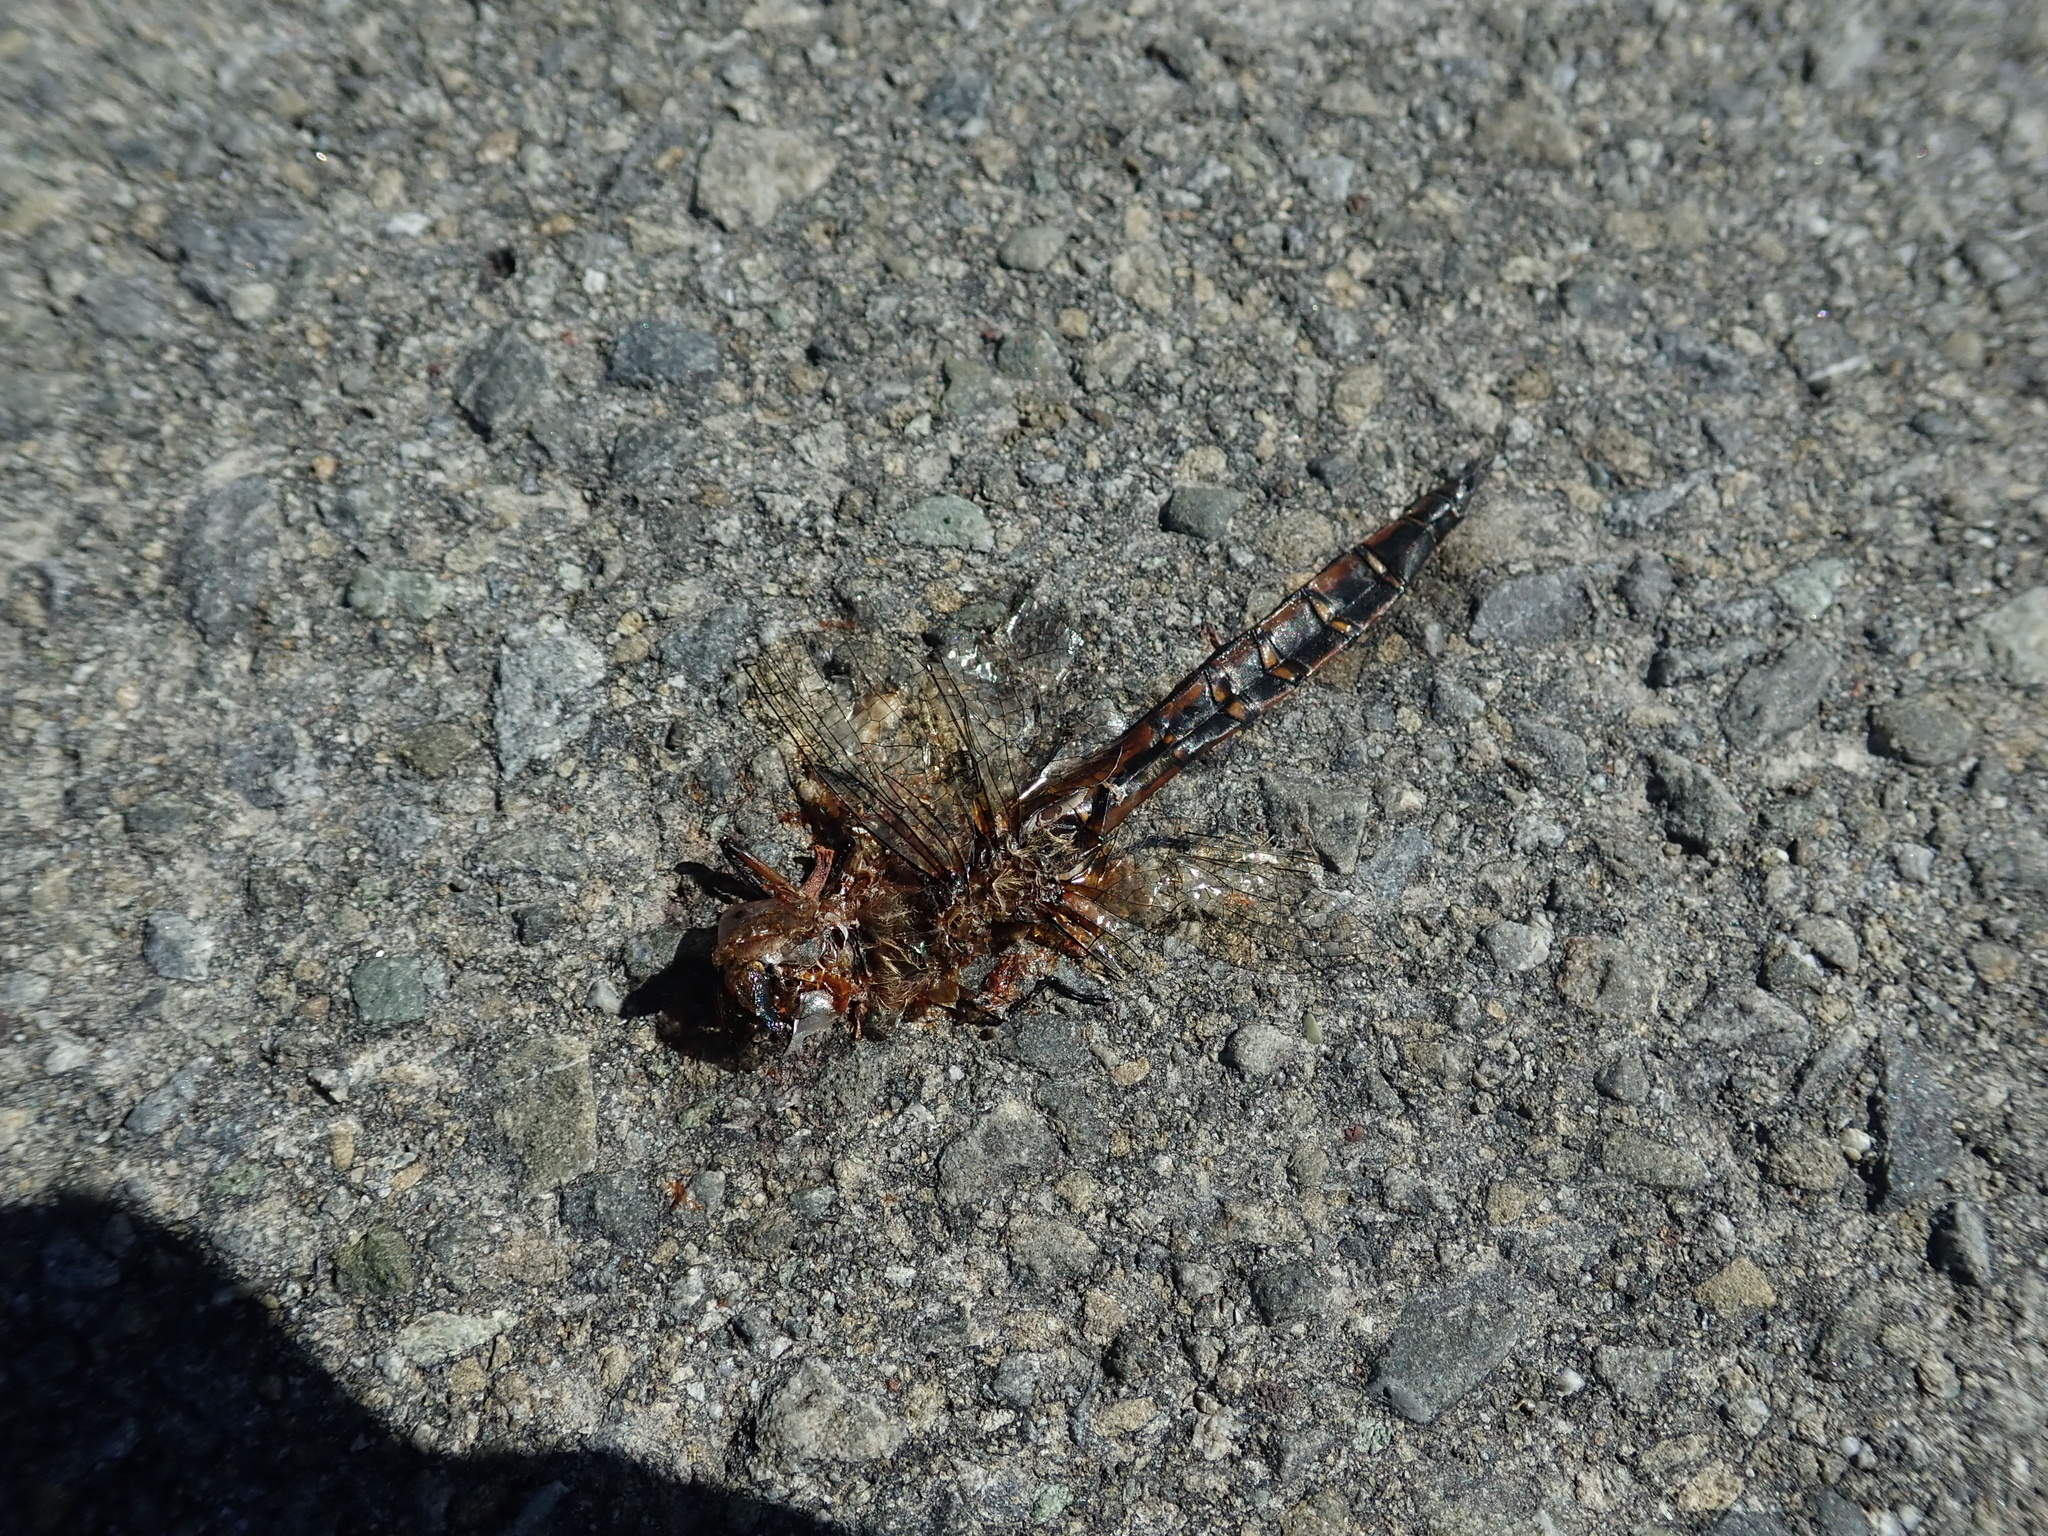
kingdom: Animalia
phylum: Arthropoda
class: Insecta
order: Odonata
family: Corduliidae
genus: Procordulia
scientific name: Procordulia smithii
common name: Ranger dragonfly
